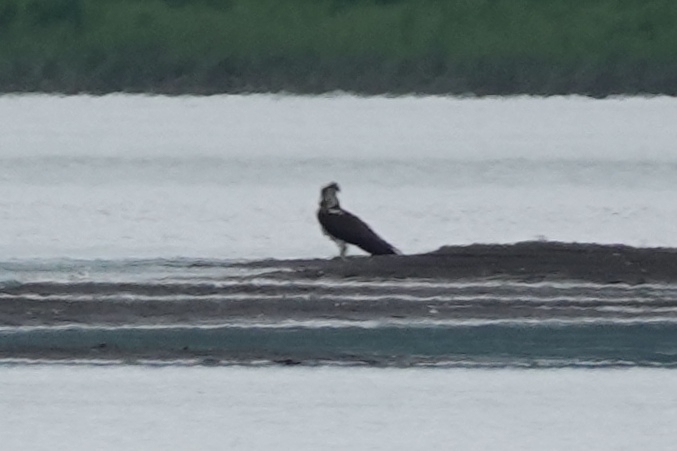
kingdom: Animalia
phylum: Chordata
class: Aves
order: Accipitriformes
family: Pandionidae
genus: Pandion
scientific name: Pandion haliaetus
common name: Osprey
